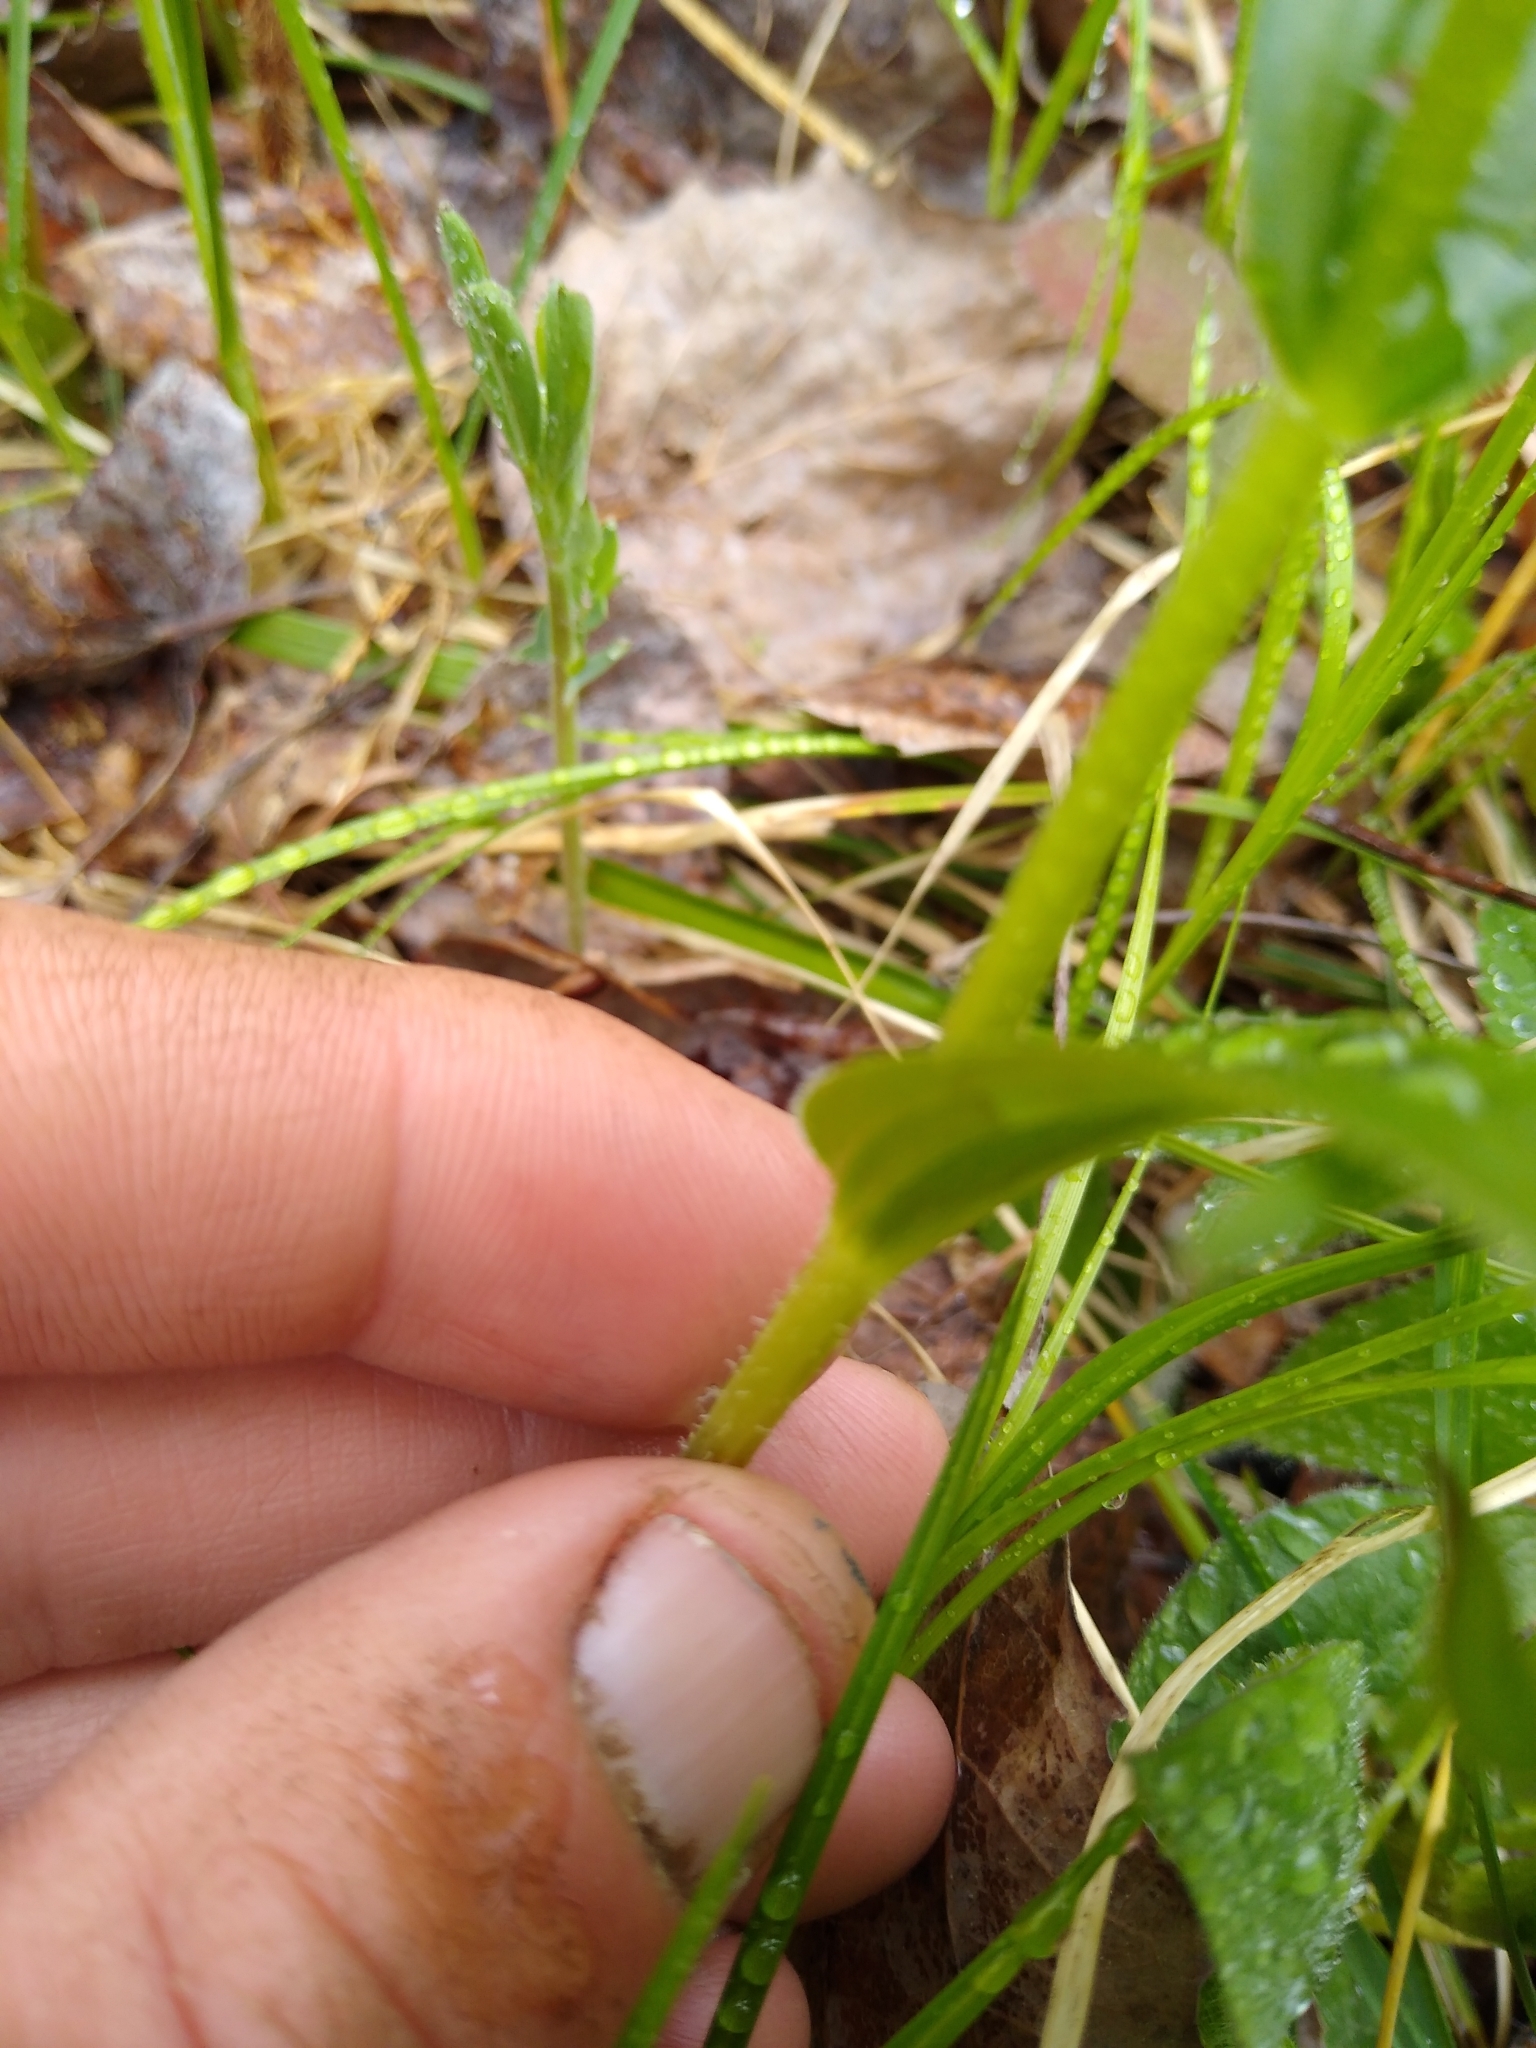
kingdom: Plantae
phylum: Tracheophyta
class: Liliopsida
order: Liliales
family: Liliaceae
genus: Streptopus
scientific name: Streptopus lanceolatus
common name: Rose mandarin
